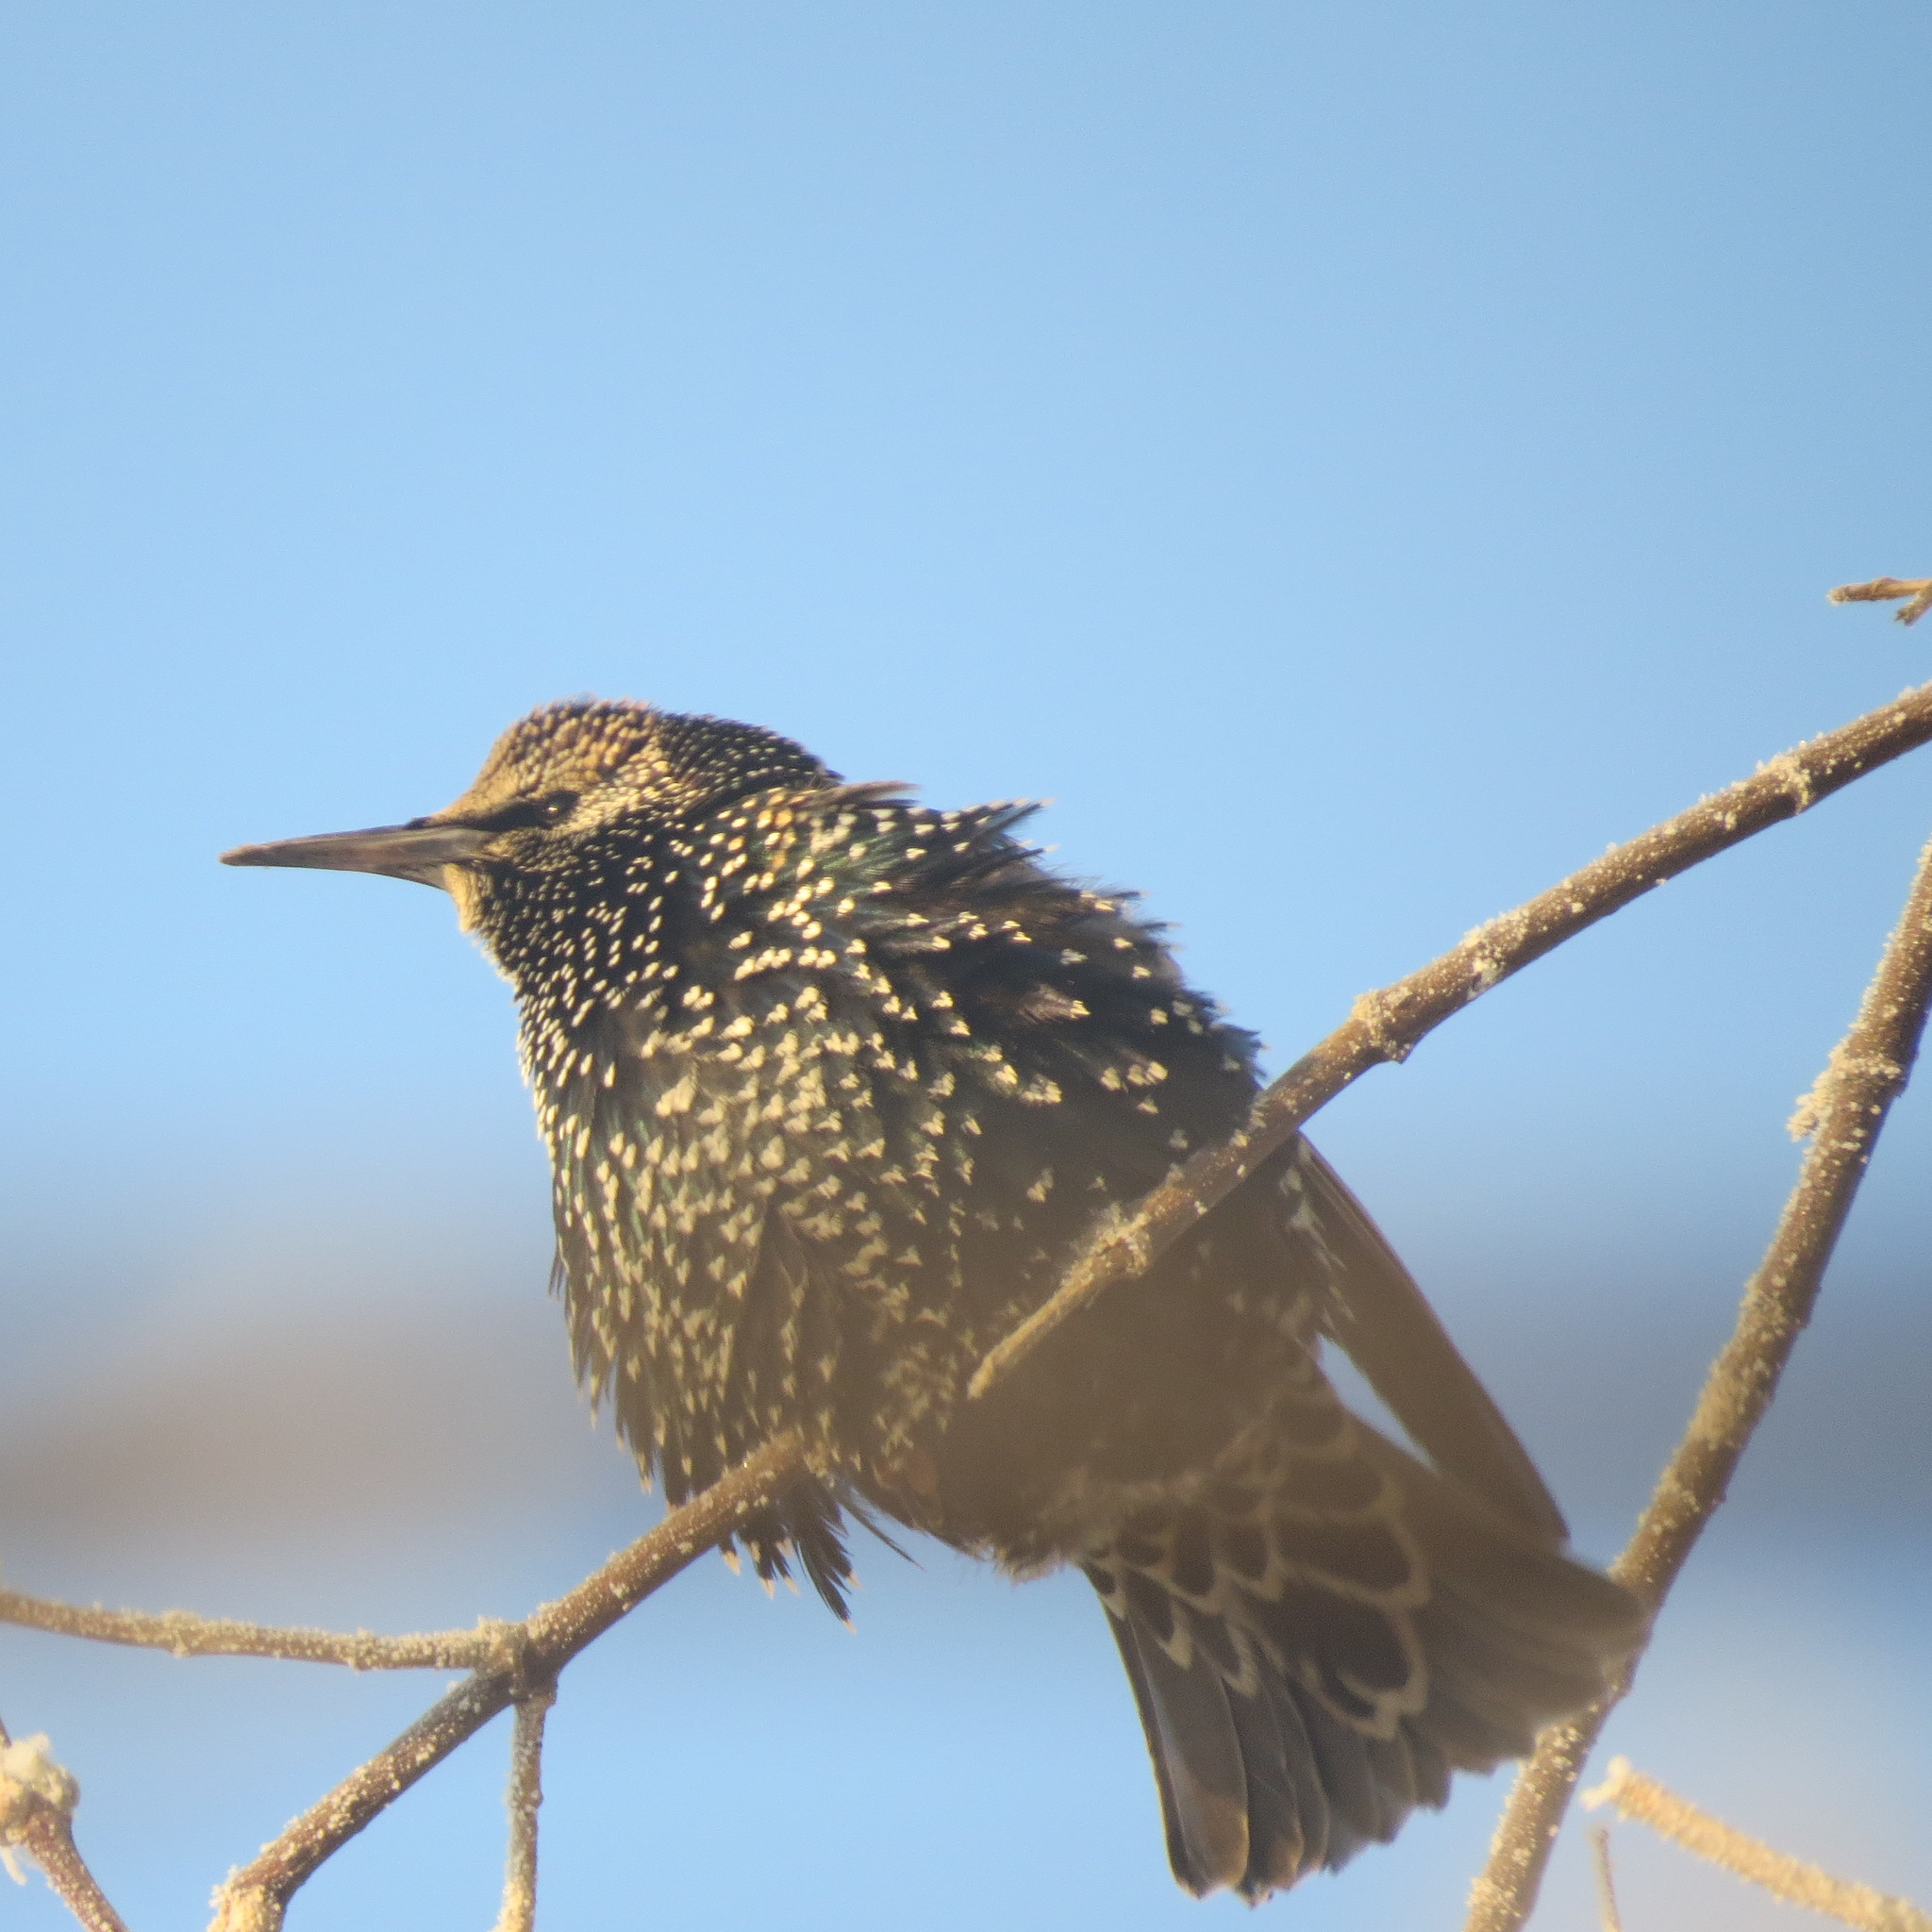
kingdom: Animalia
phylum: Chordata
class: Aves
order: Passeriformes
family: Sturnidae
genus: Sturnus
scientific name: Sturnus vulgaris
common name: Common starling
